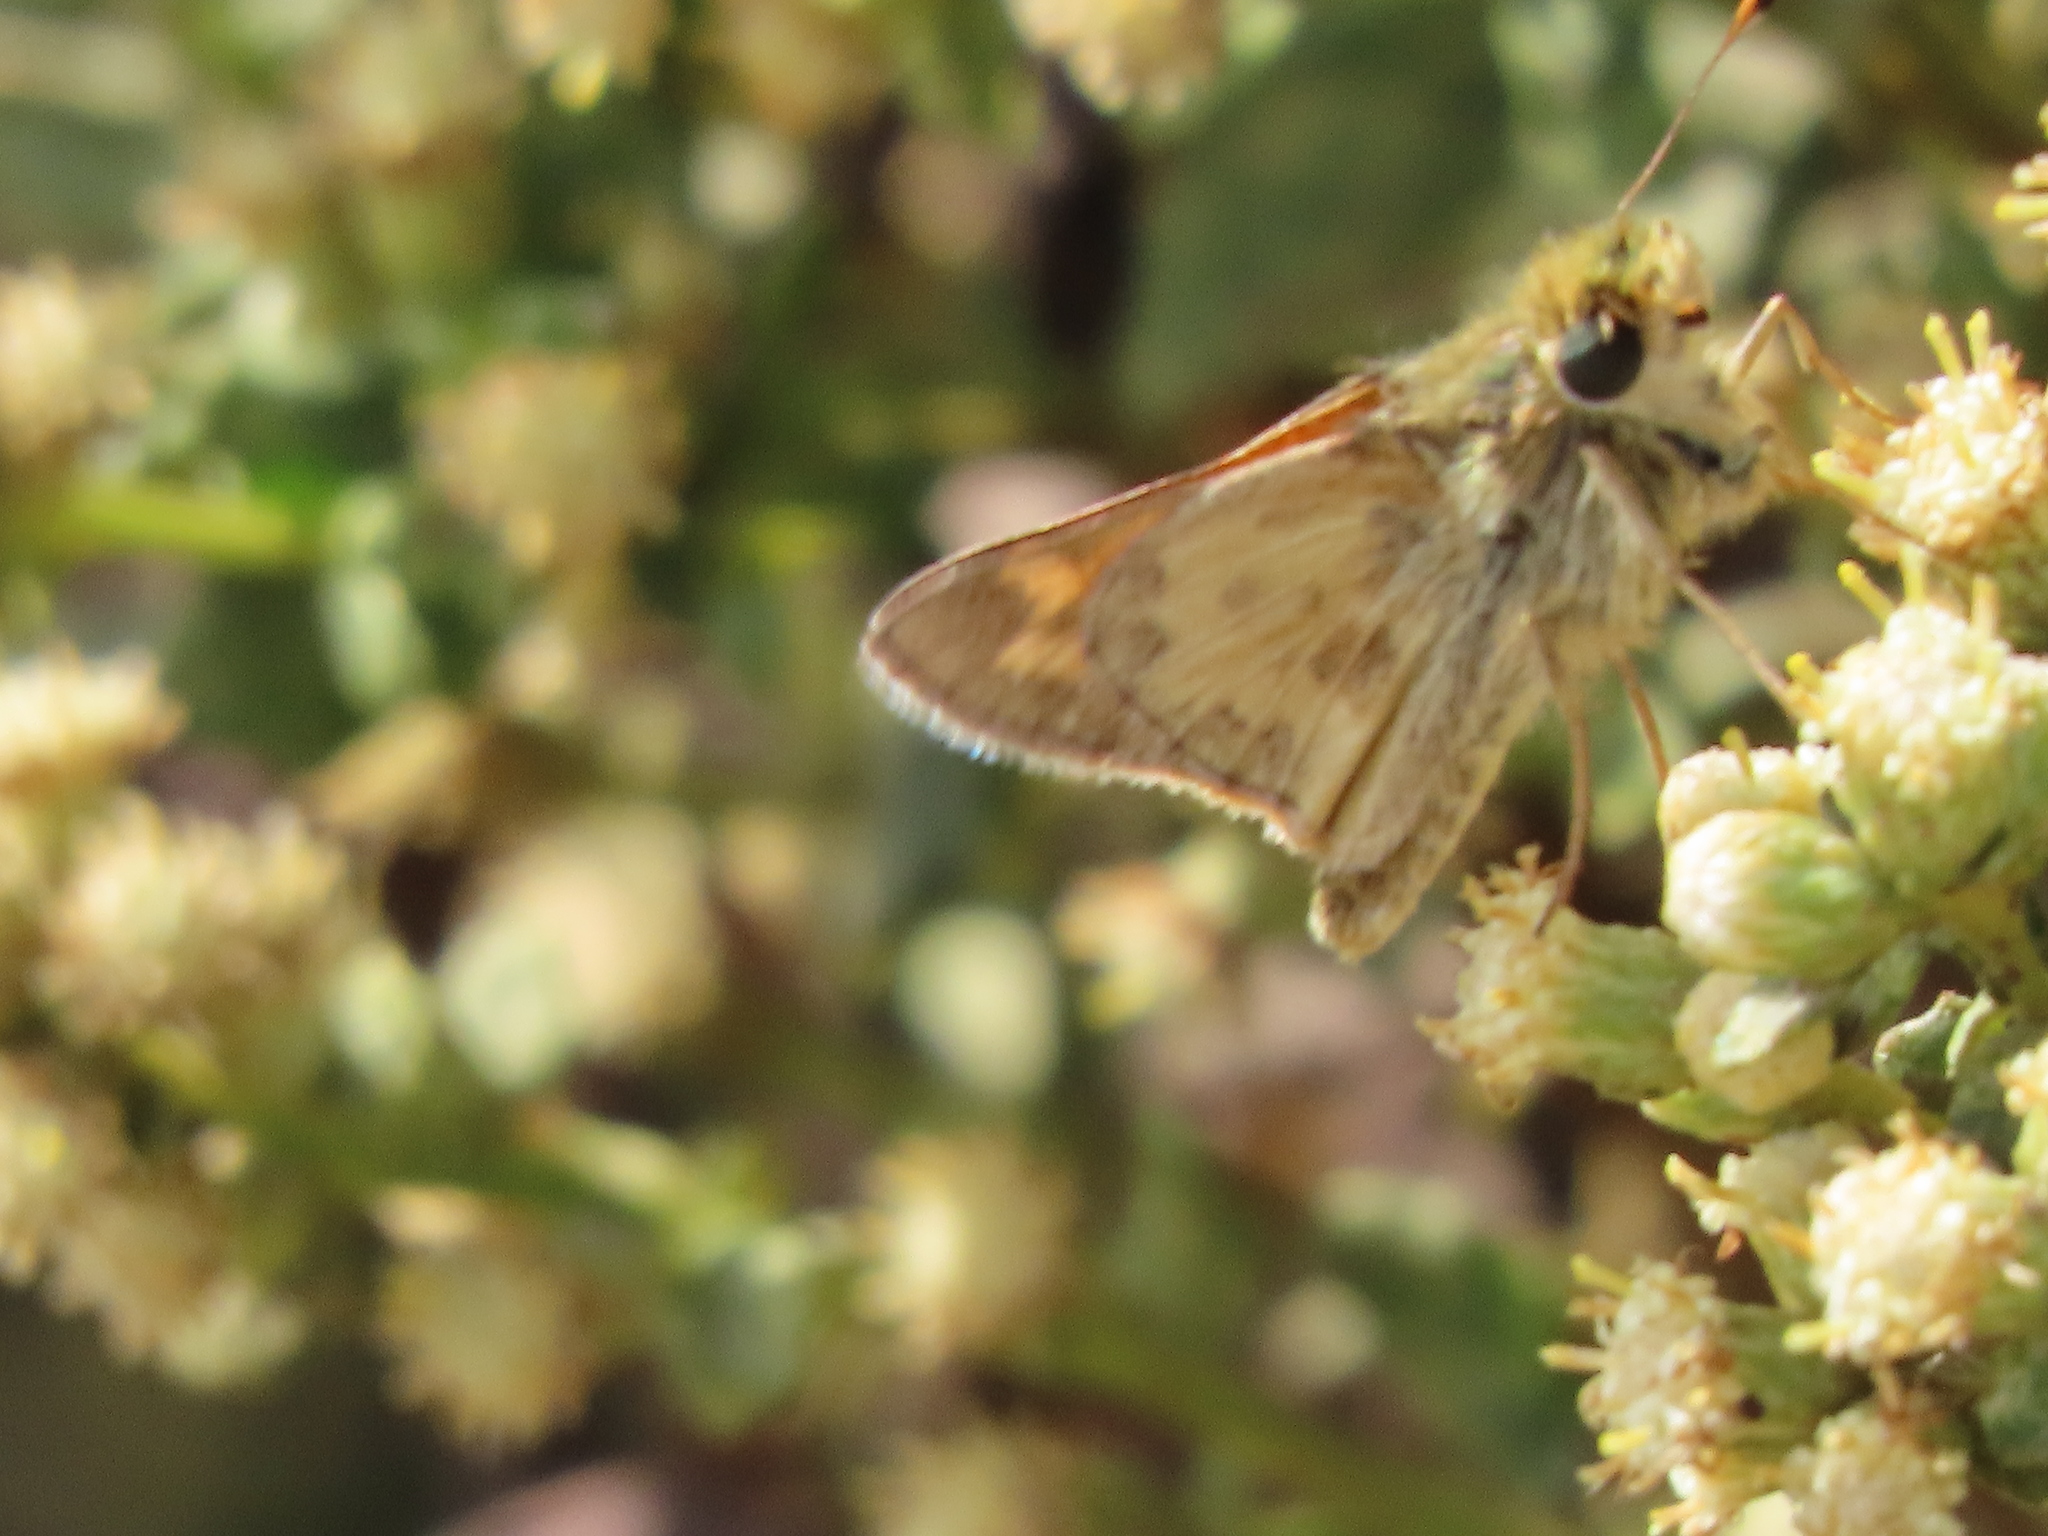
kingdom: Animalia
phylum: Arthropoda
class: Insecta
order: Lepidoptera
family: Hesperiidae
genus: Atalopedes
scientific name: Atalopedes campestris
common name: Sachem
